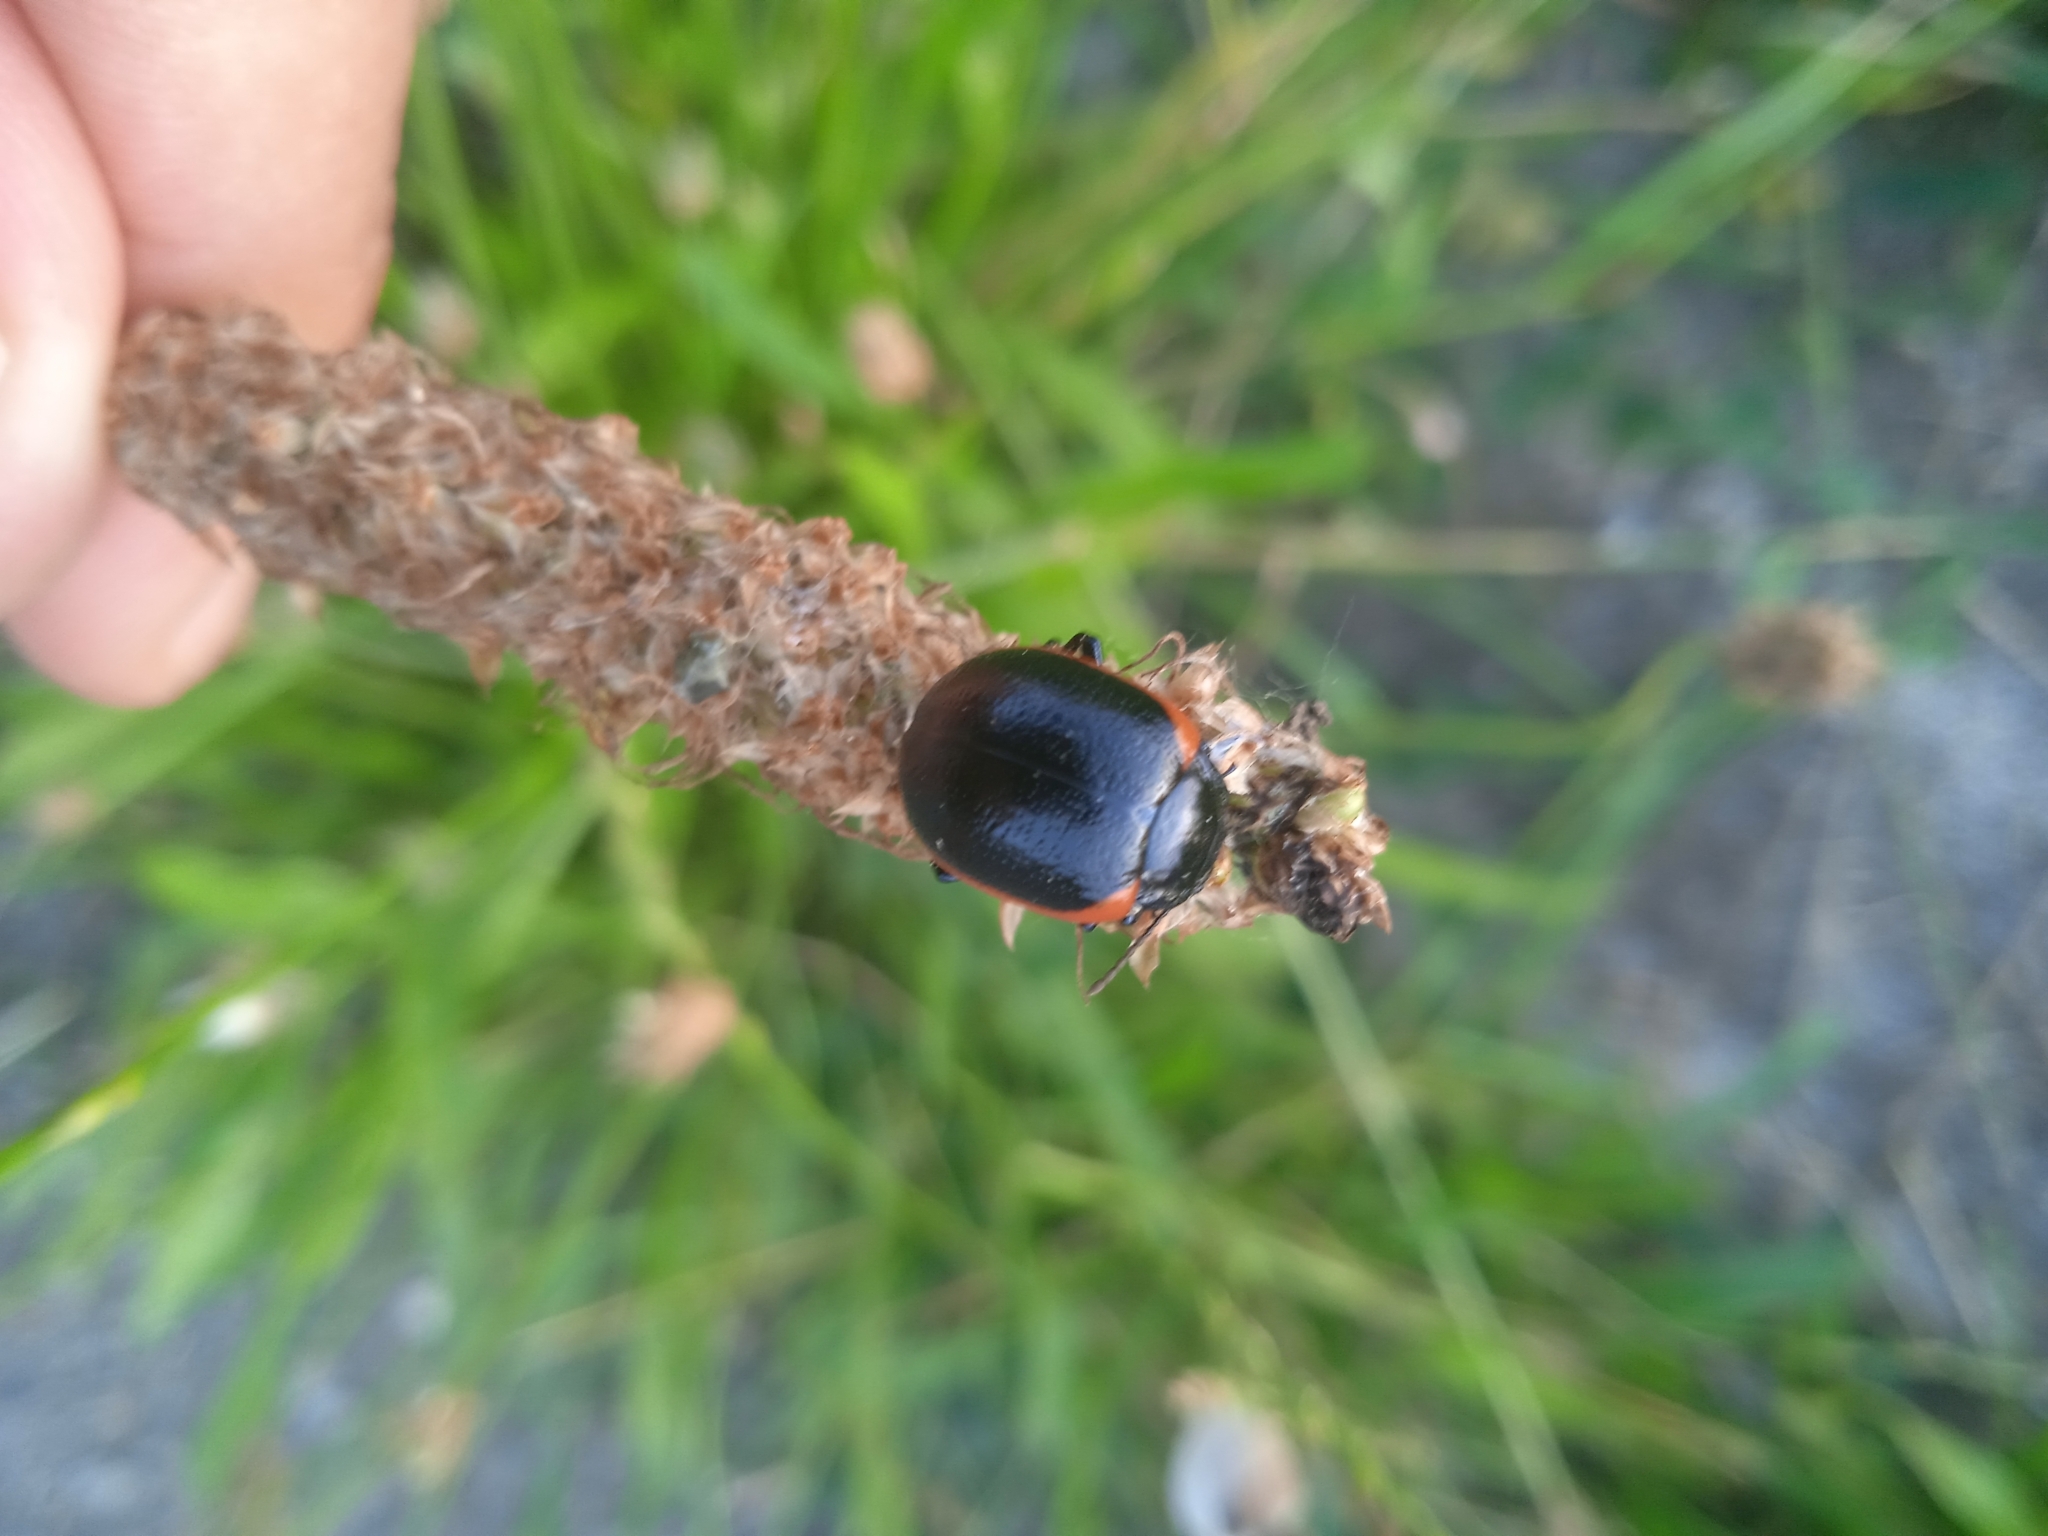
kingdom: Animalia
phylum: Arthropoda
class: Insecta
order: Coleoptera
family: Chrysomelidae
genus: Chrysolina
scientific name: Chrysolina rossia
